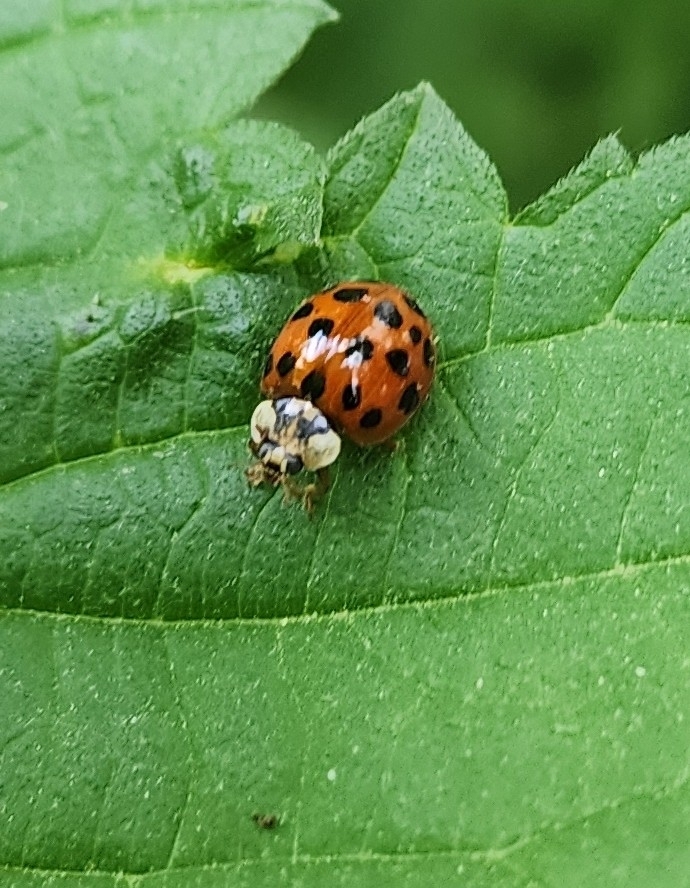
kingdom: Animalia
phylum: Arthropoda
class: Insecta
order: Coleoptera
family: Coccinellidae
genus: Harmonia
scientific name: Harmonia axyridis
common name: Harlequin ladybird
